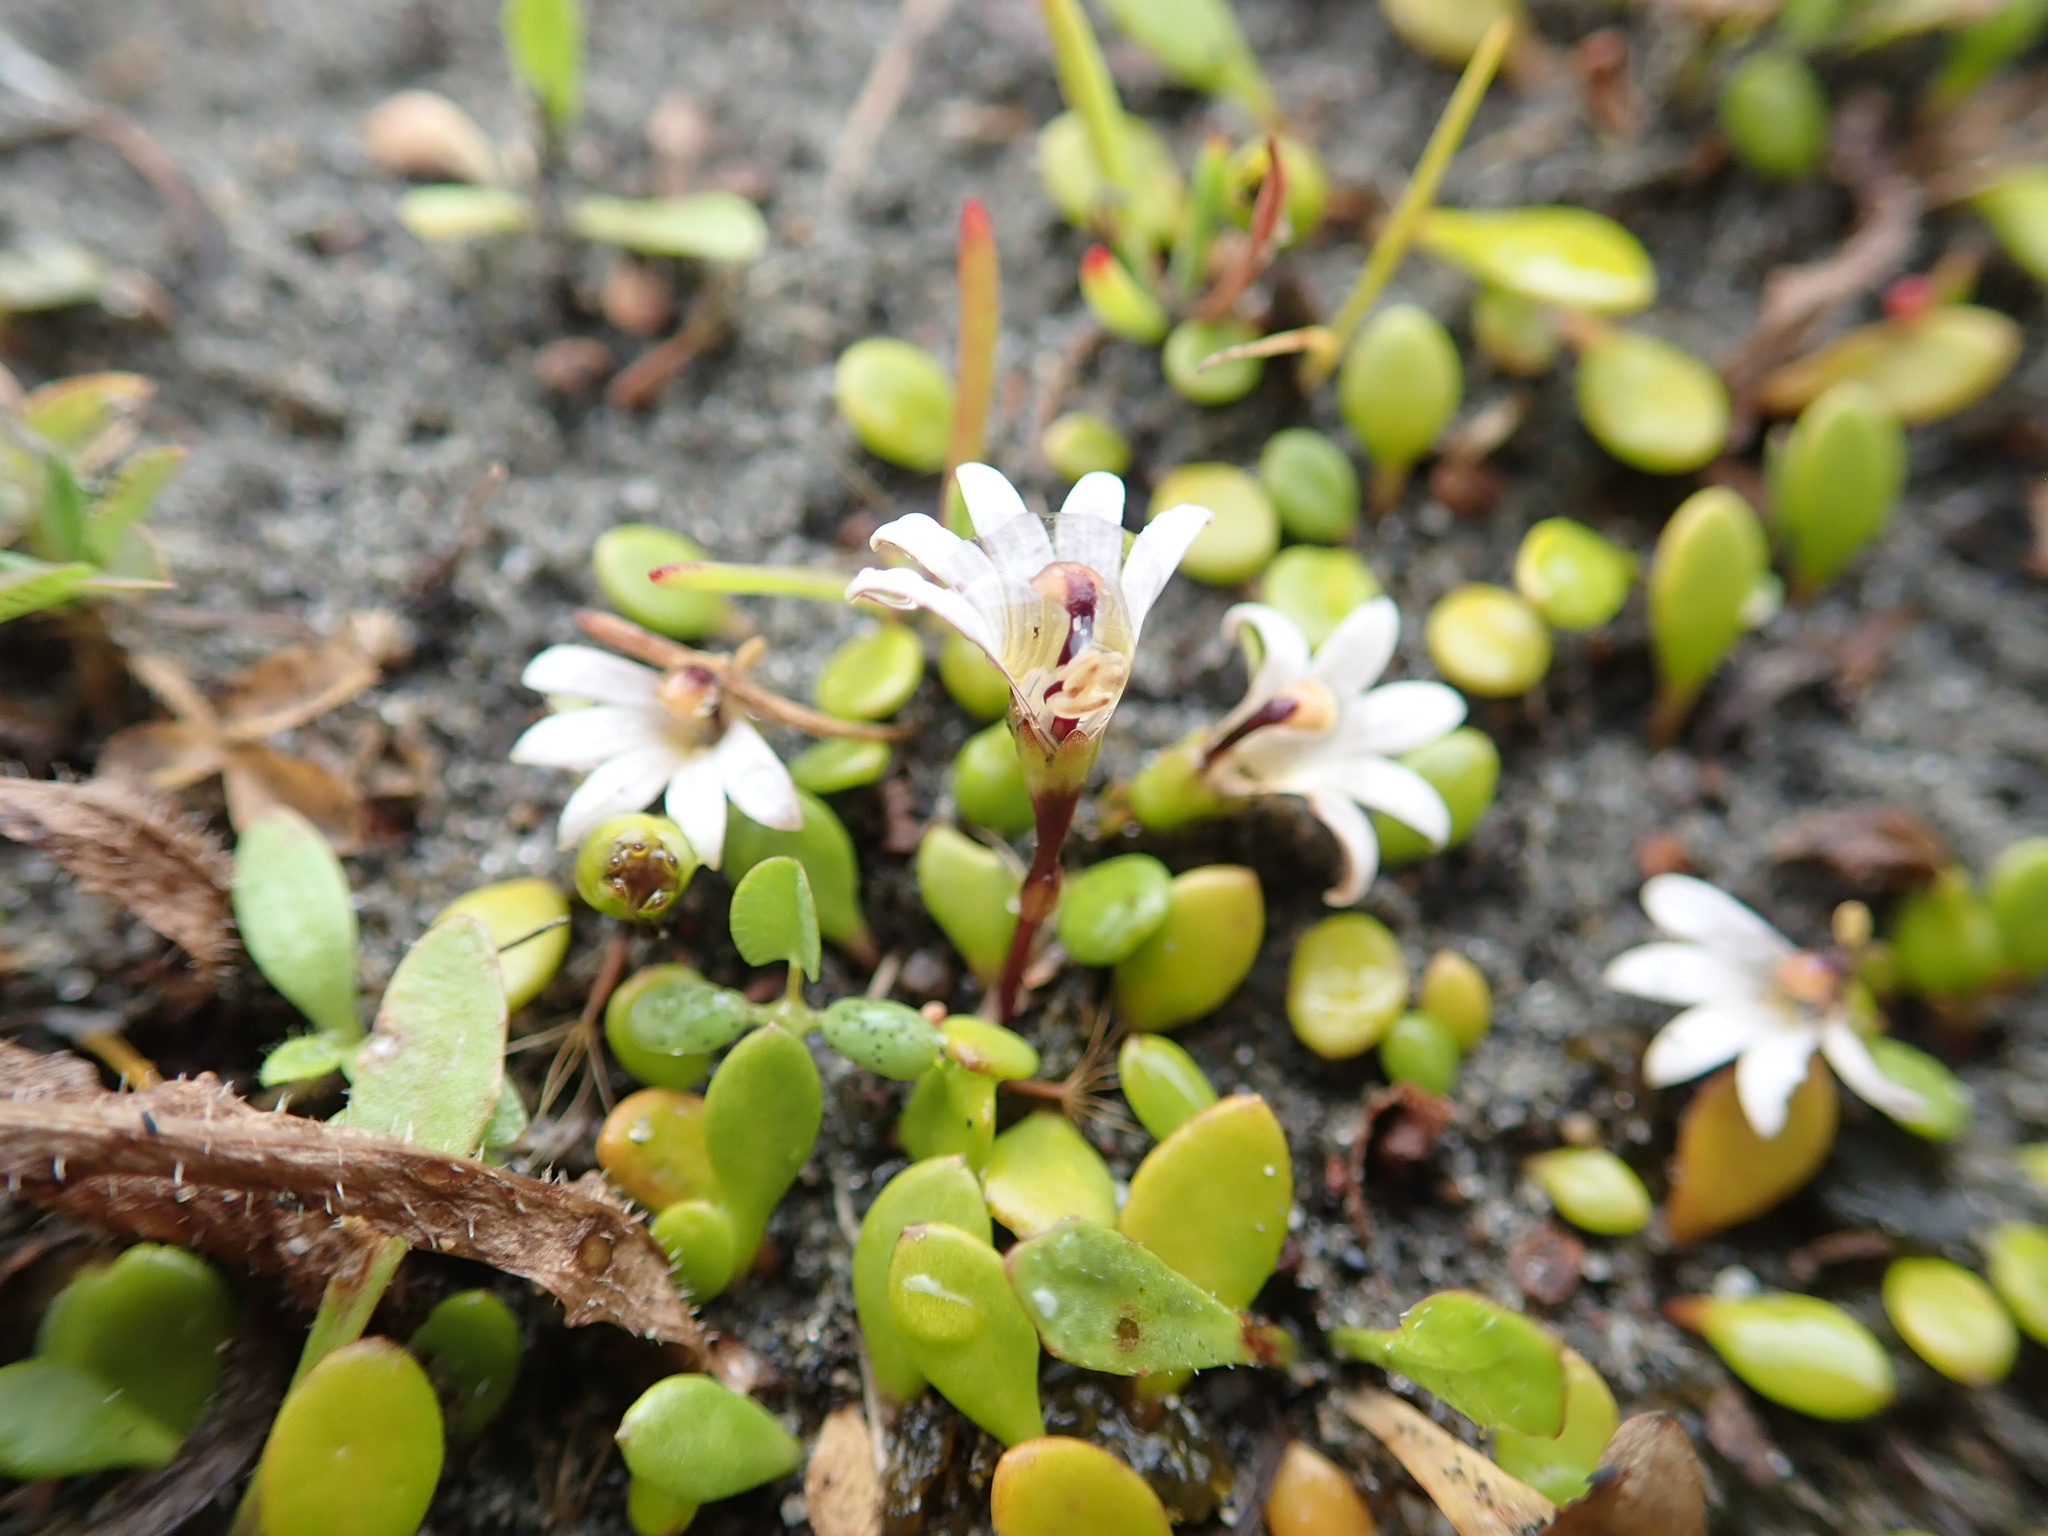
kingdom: Plantae
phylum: Tracheophyta
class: Magnoliopsida
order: Asterales
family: Goodeniaceae
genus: Goodenia
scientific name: Goodenia radicans
